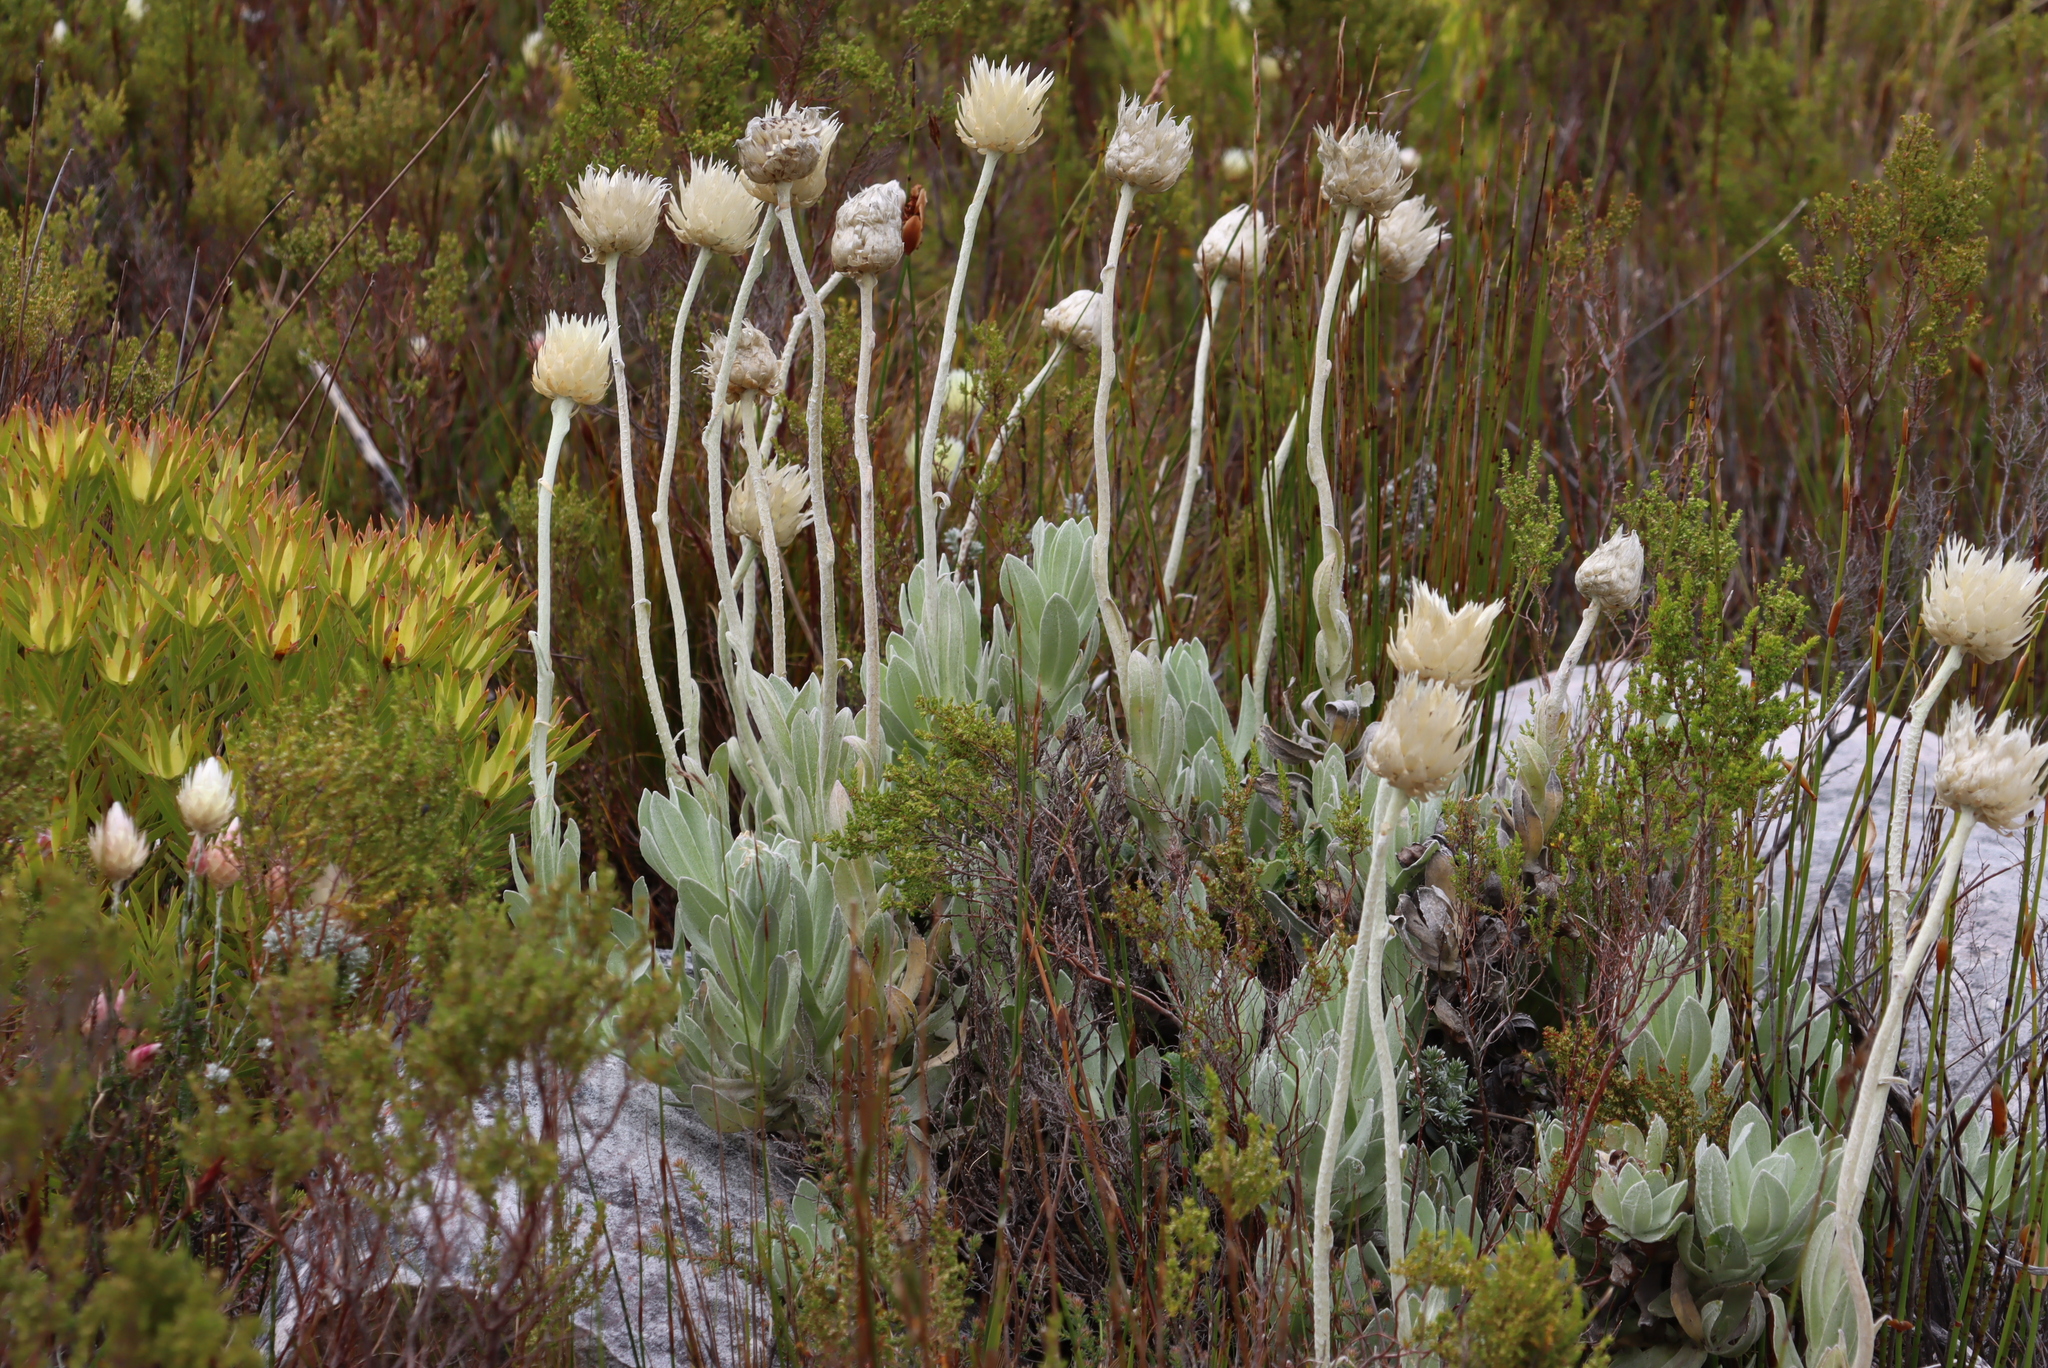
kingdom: Plantae
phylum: Tracheophyta
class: Magnoliopsida
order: Asterales
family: Asteraceae
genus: Syncarpha
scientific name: Syncarpha speciosissima
